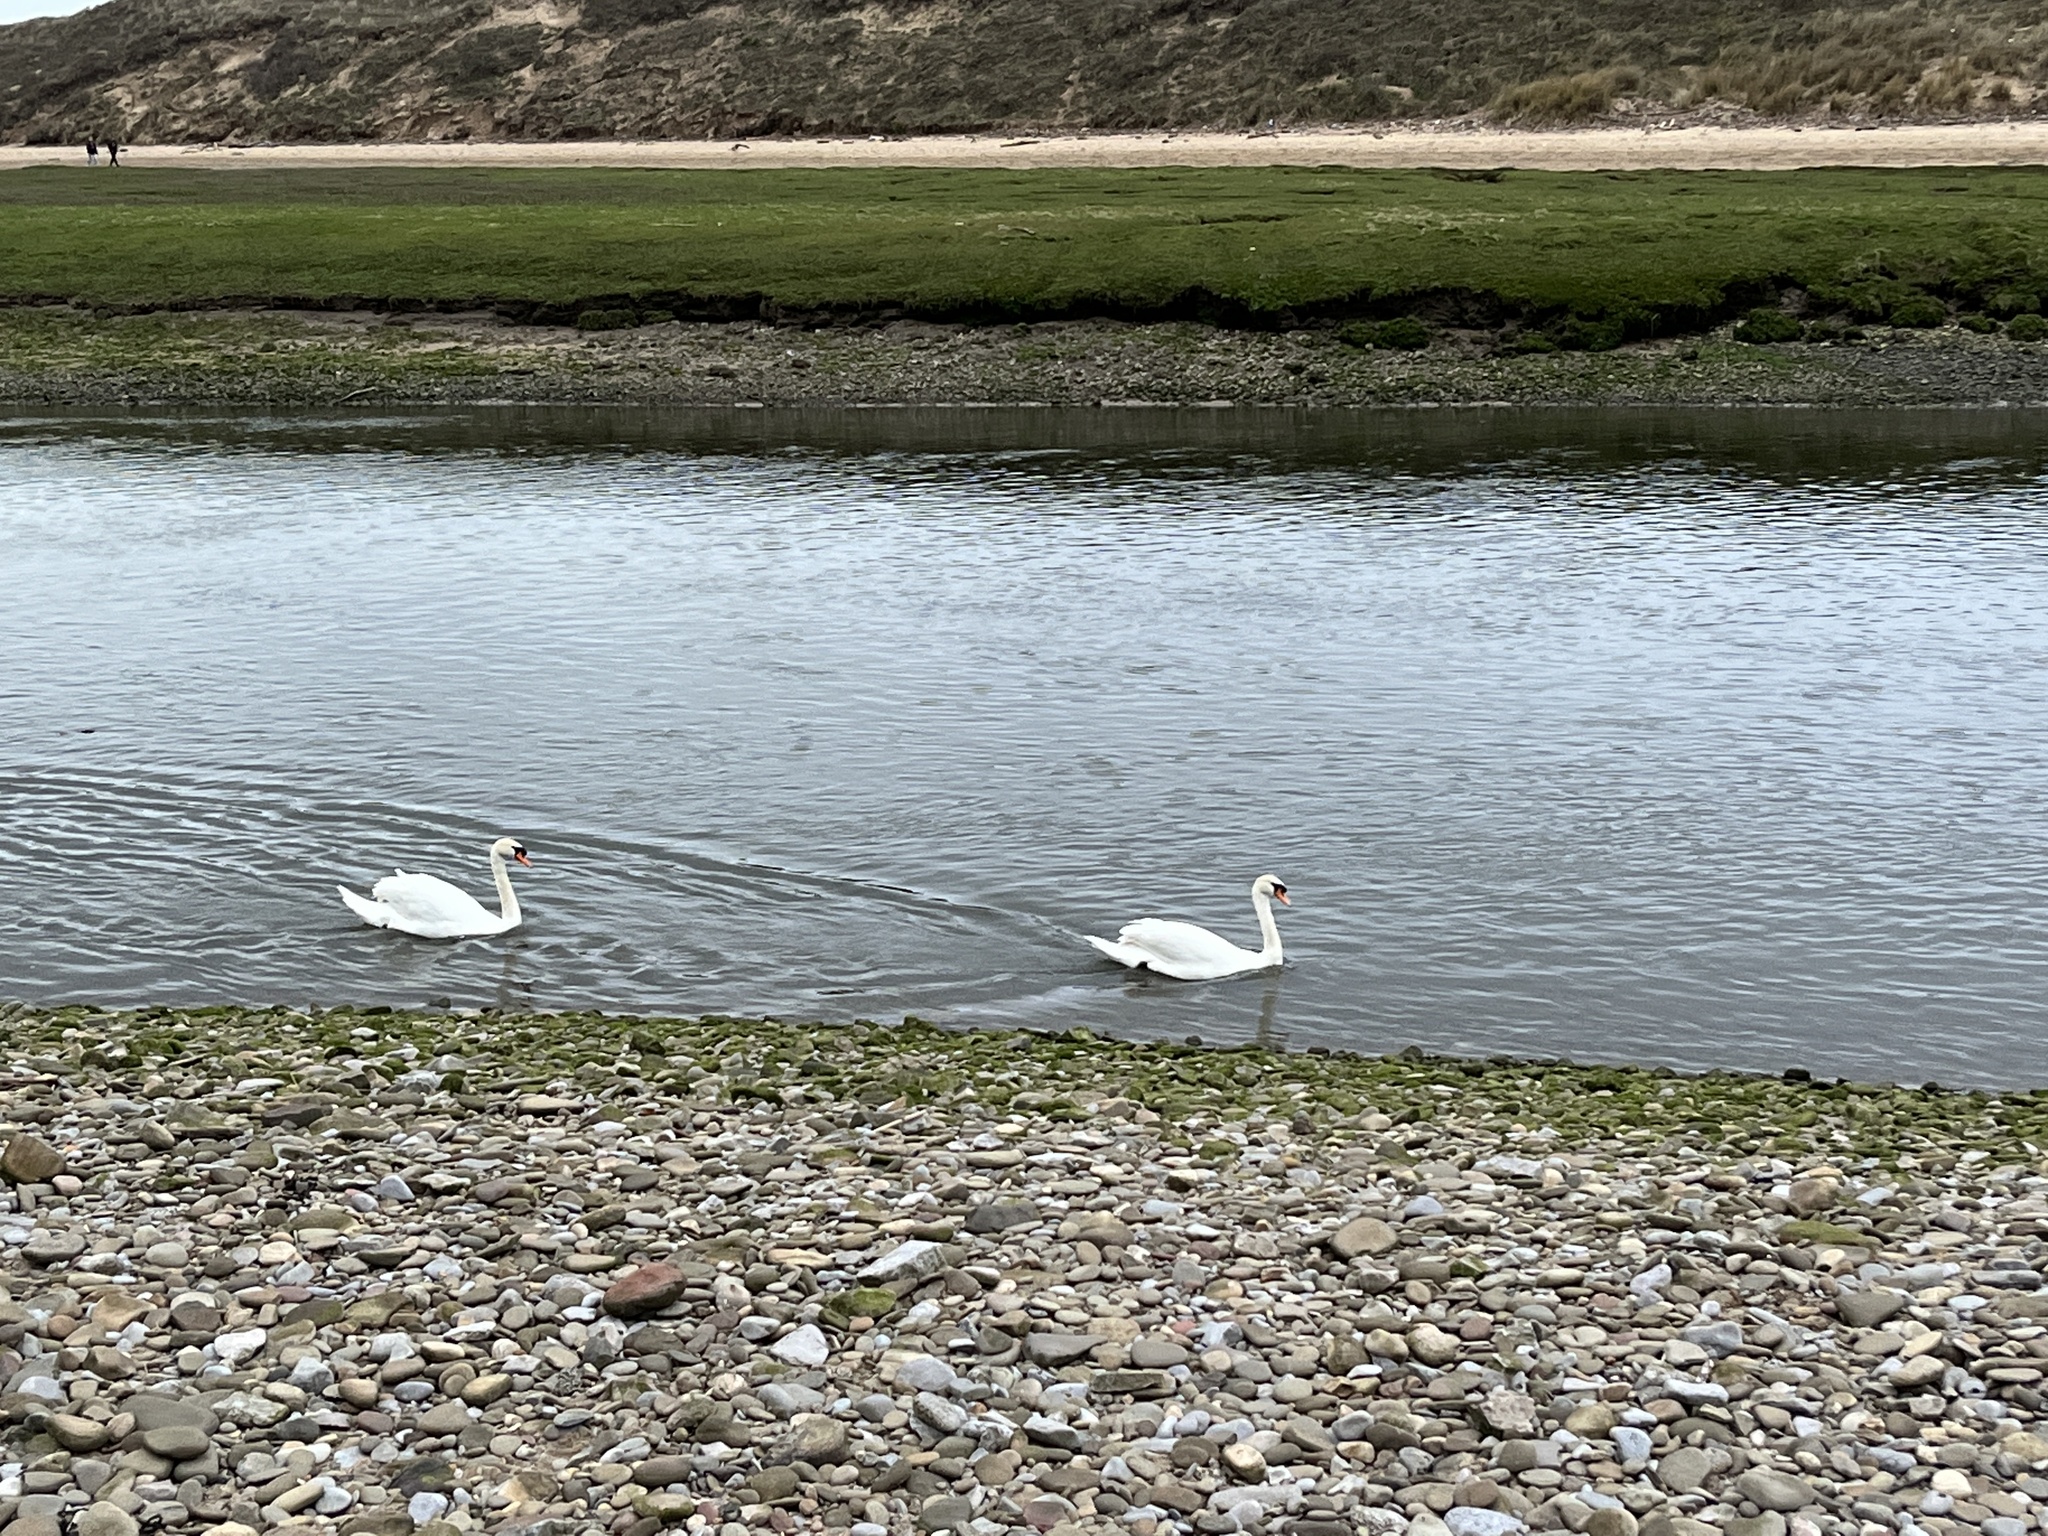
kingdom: Animalia
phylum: Chordata
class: Aves
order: Anseriformes
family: Anatidae
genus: Cygnus
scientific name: Cygnus olor
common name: Mute swan
